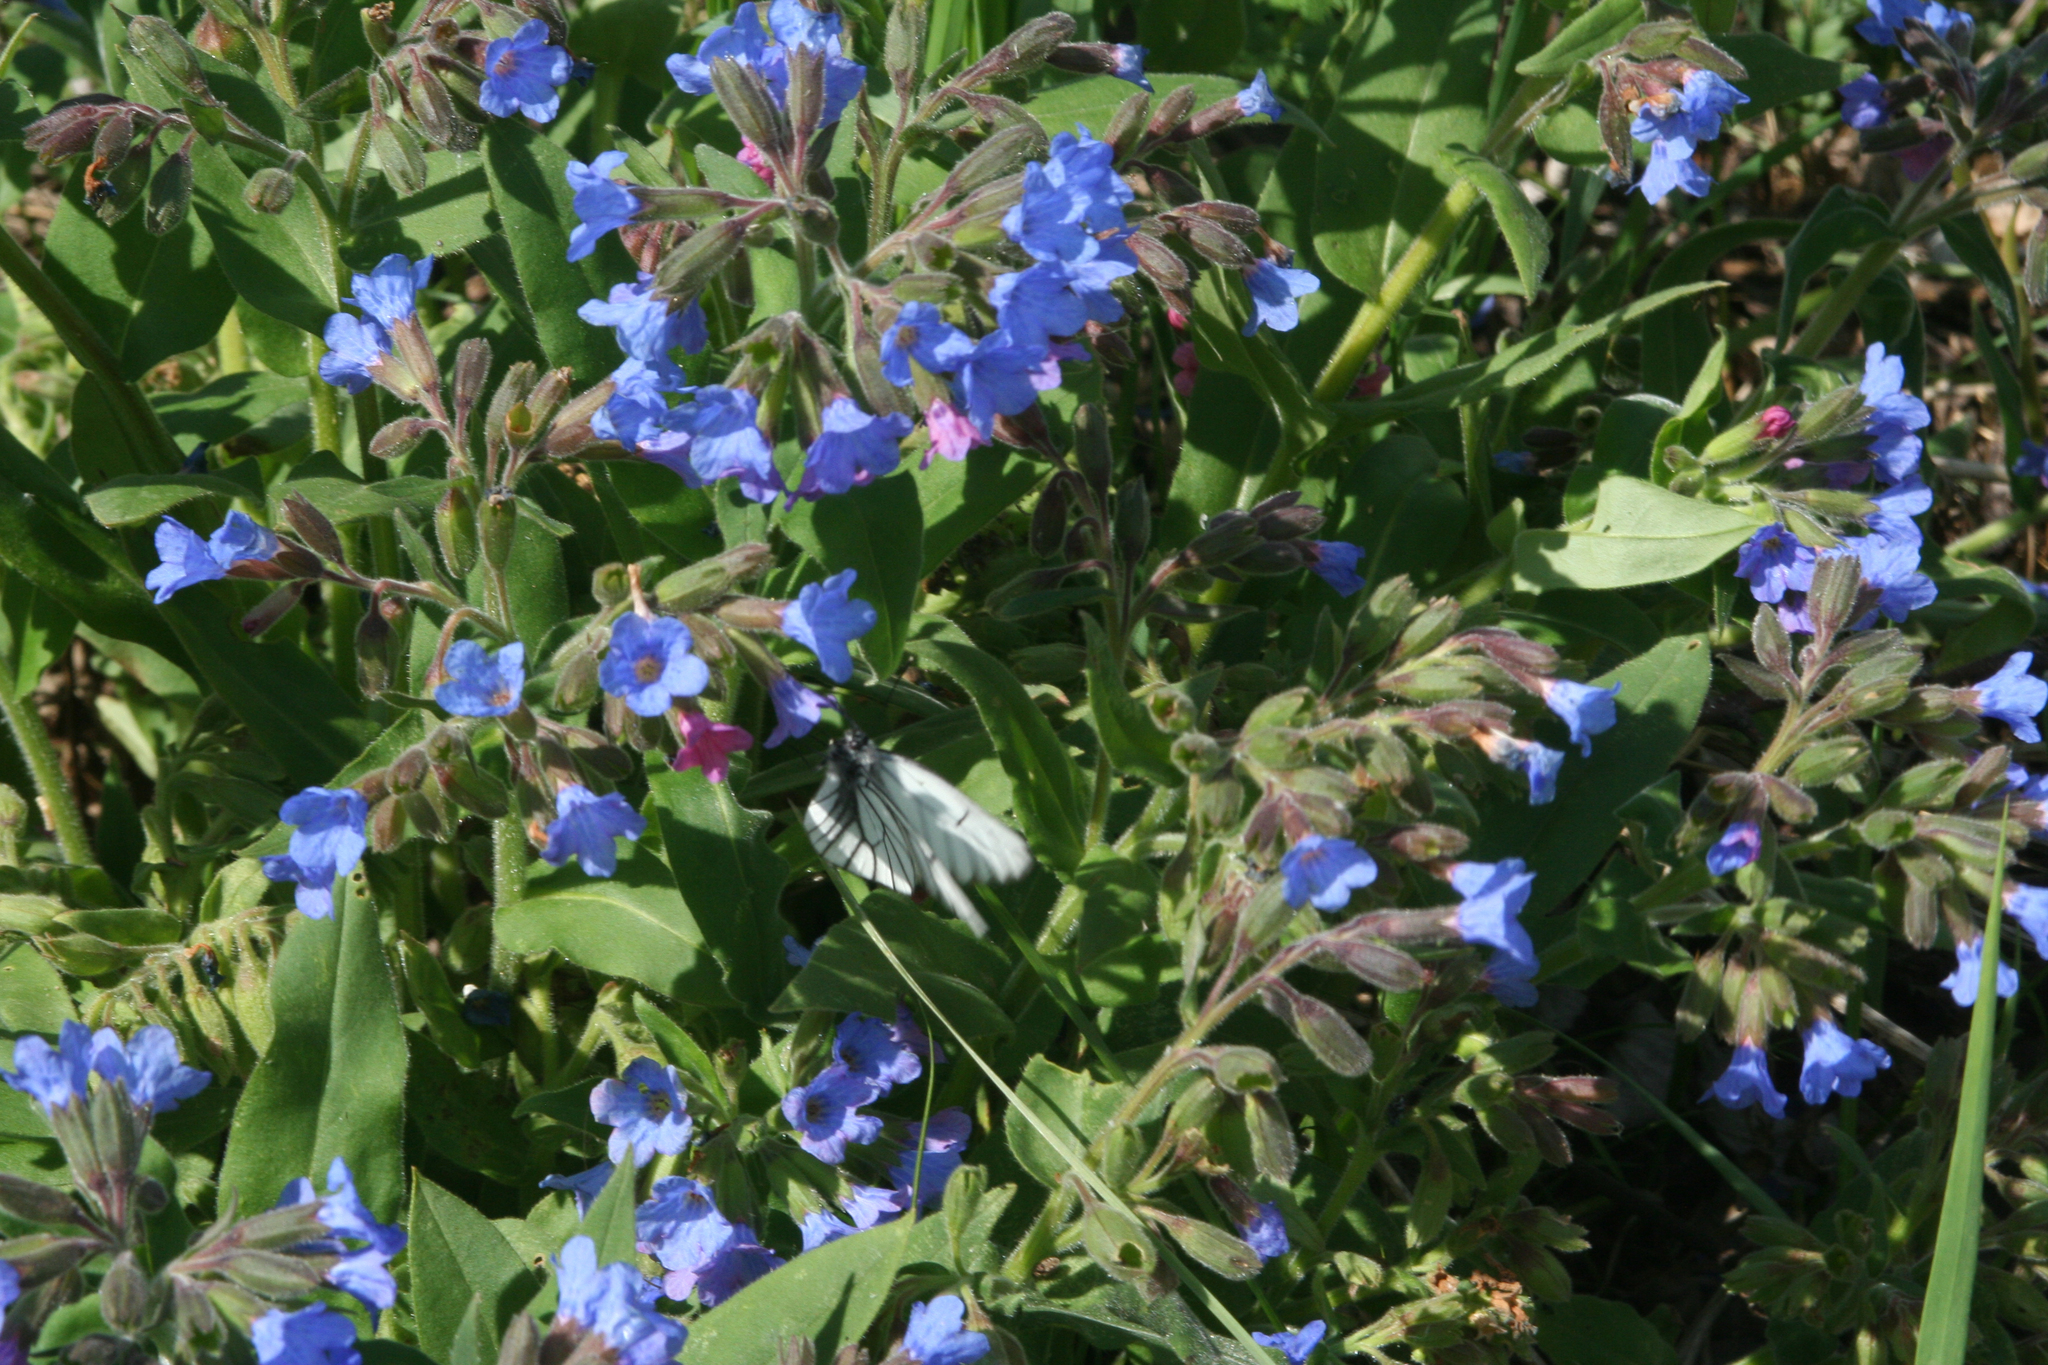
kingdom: Plantae
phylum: Tracheophyta
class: Magnoliopsida
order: Boraginales
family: Boraginaceae
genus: Pulmonaria
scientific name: Pulmonaria mollis
